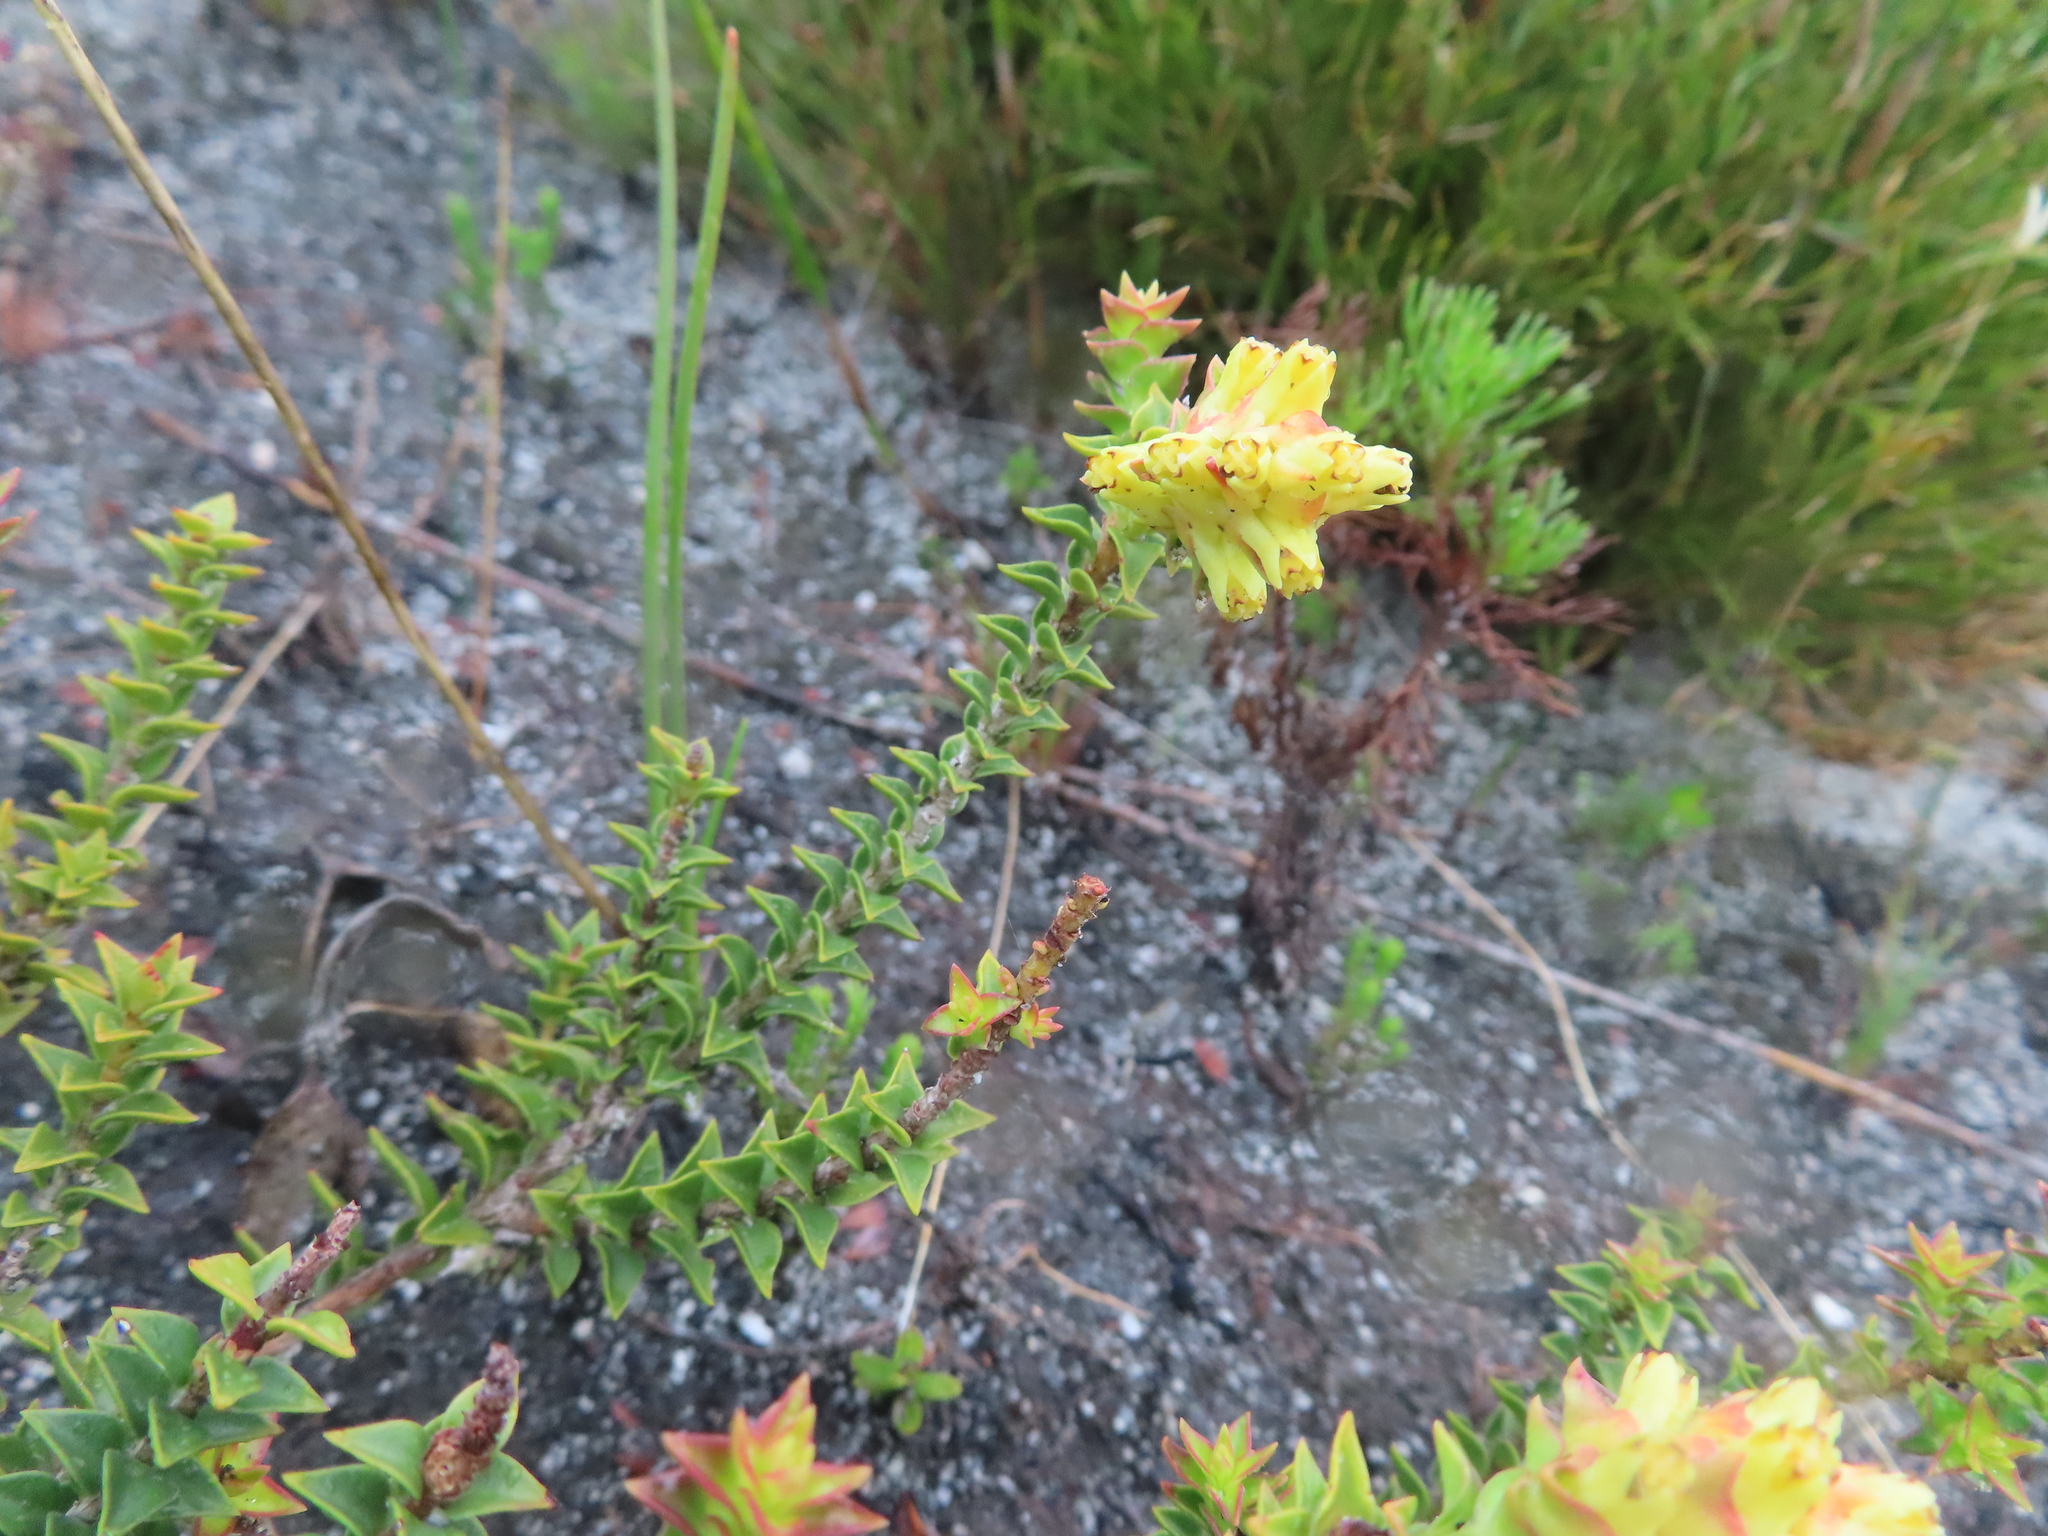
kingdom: Plantae
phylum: Tracheophyta
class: Magnoliopsida
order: Myrtales
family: Penaeaceae
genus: Penaea
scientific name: Penaea mucronata
